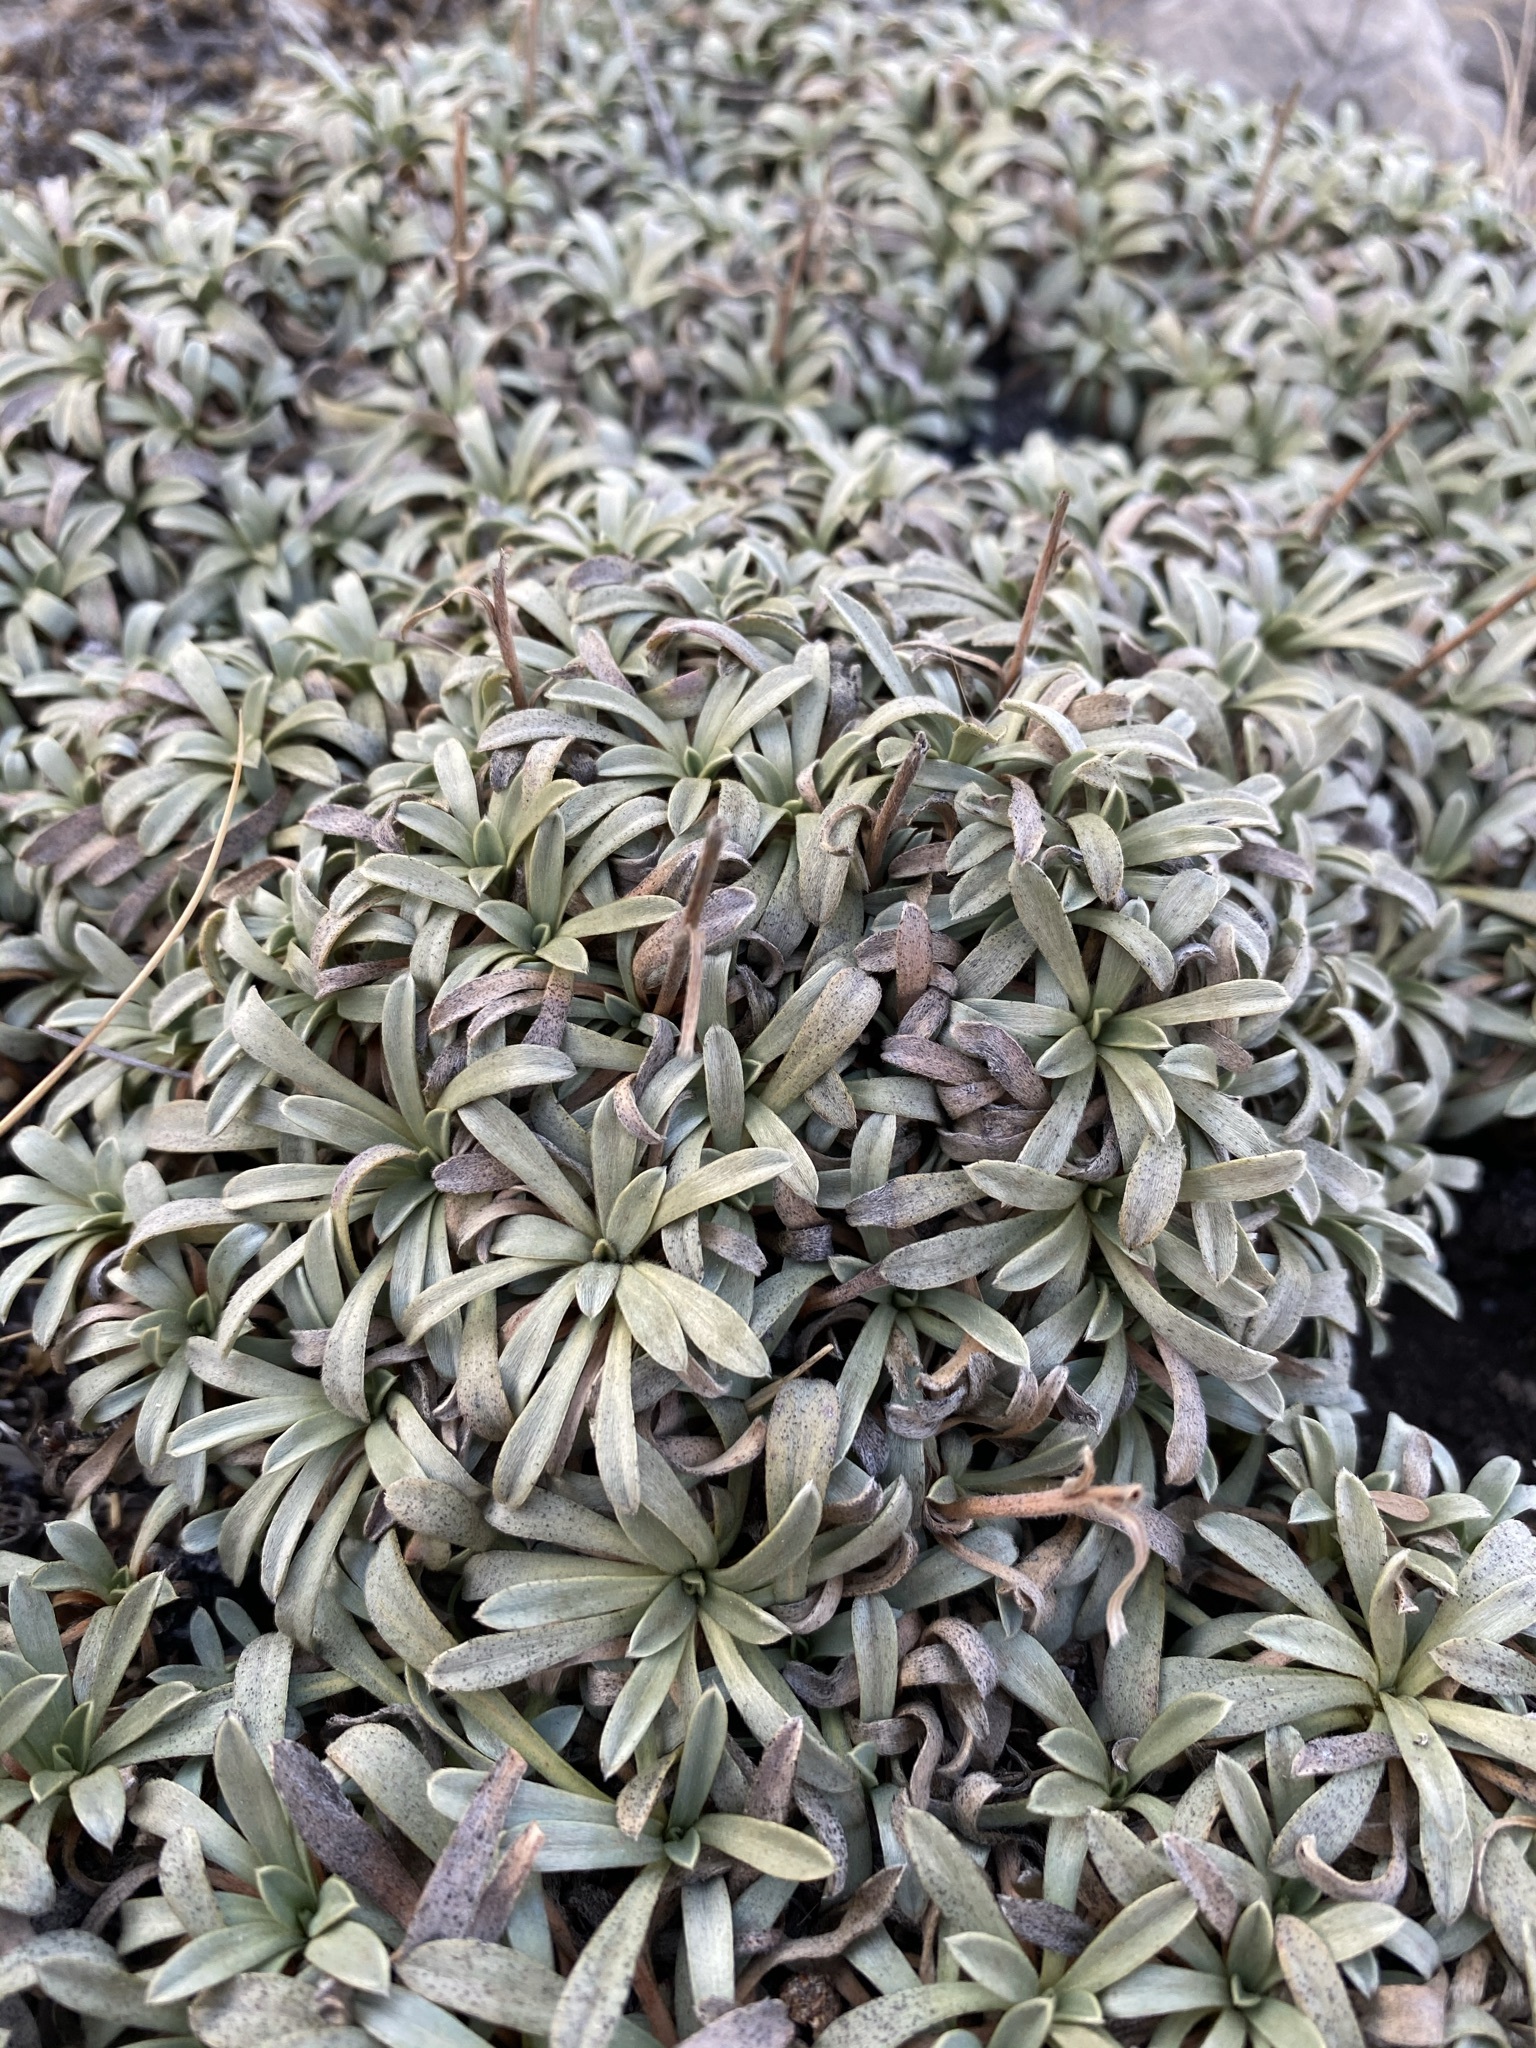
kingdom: Plantae
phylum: Tracheophyta
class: Magnoliopsida
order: Rosales
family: Rosaceae
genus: Petrophytum
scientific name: Petrophytum caespitosum
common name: Mat rockspirea
